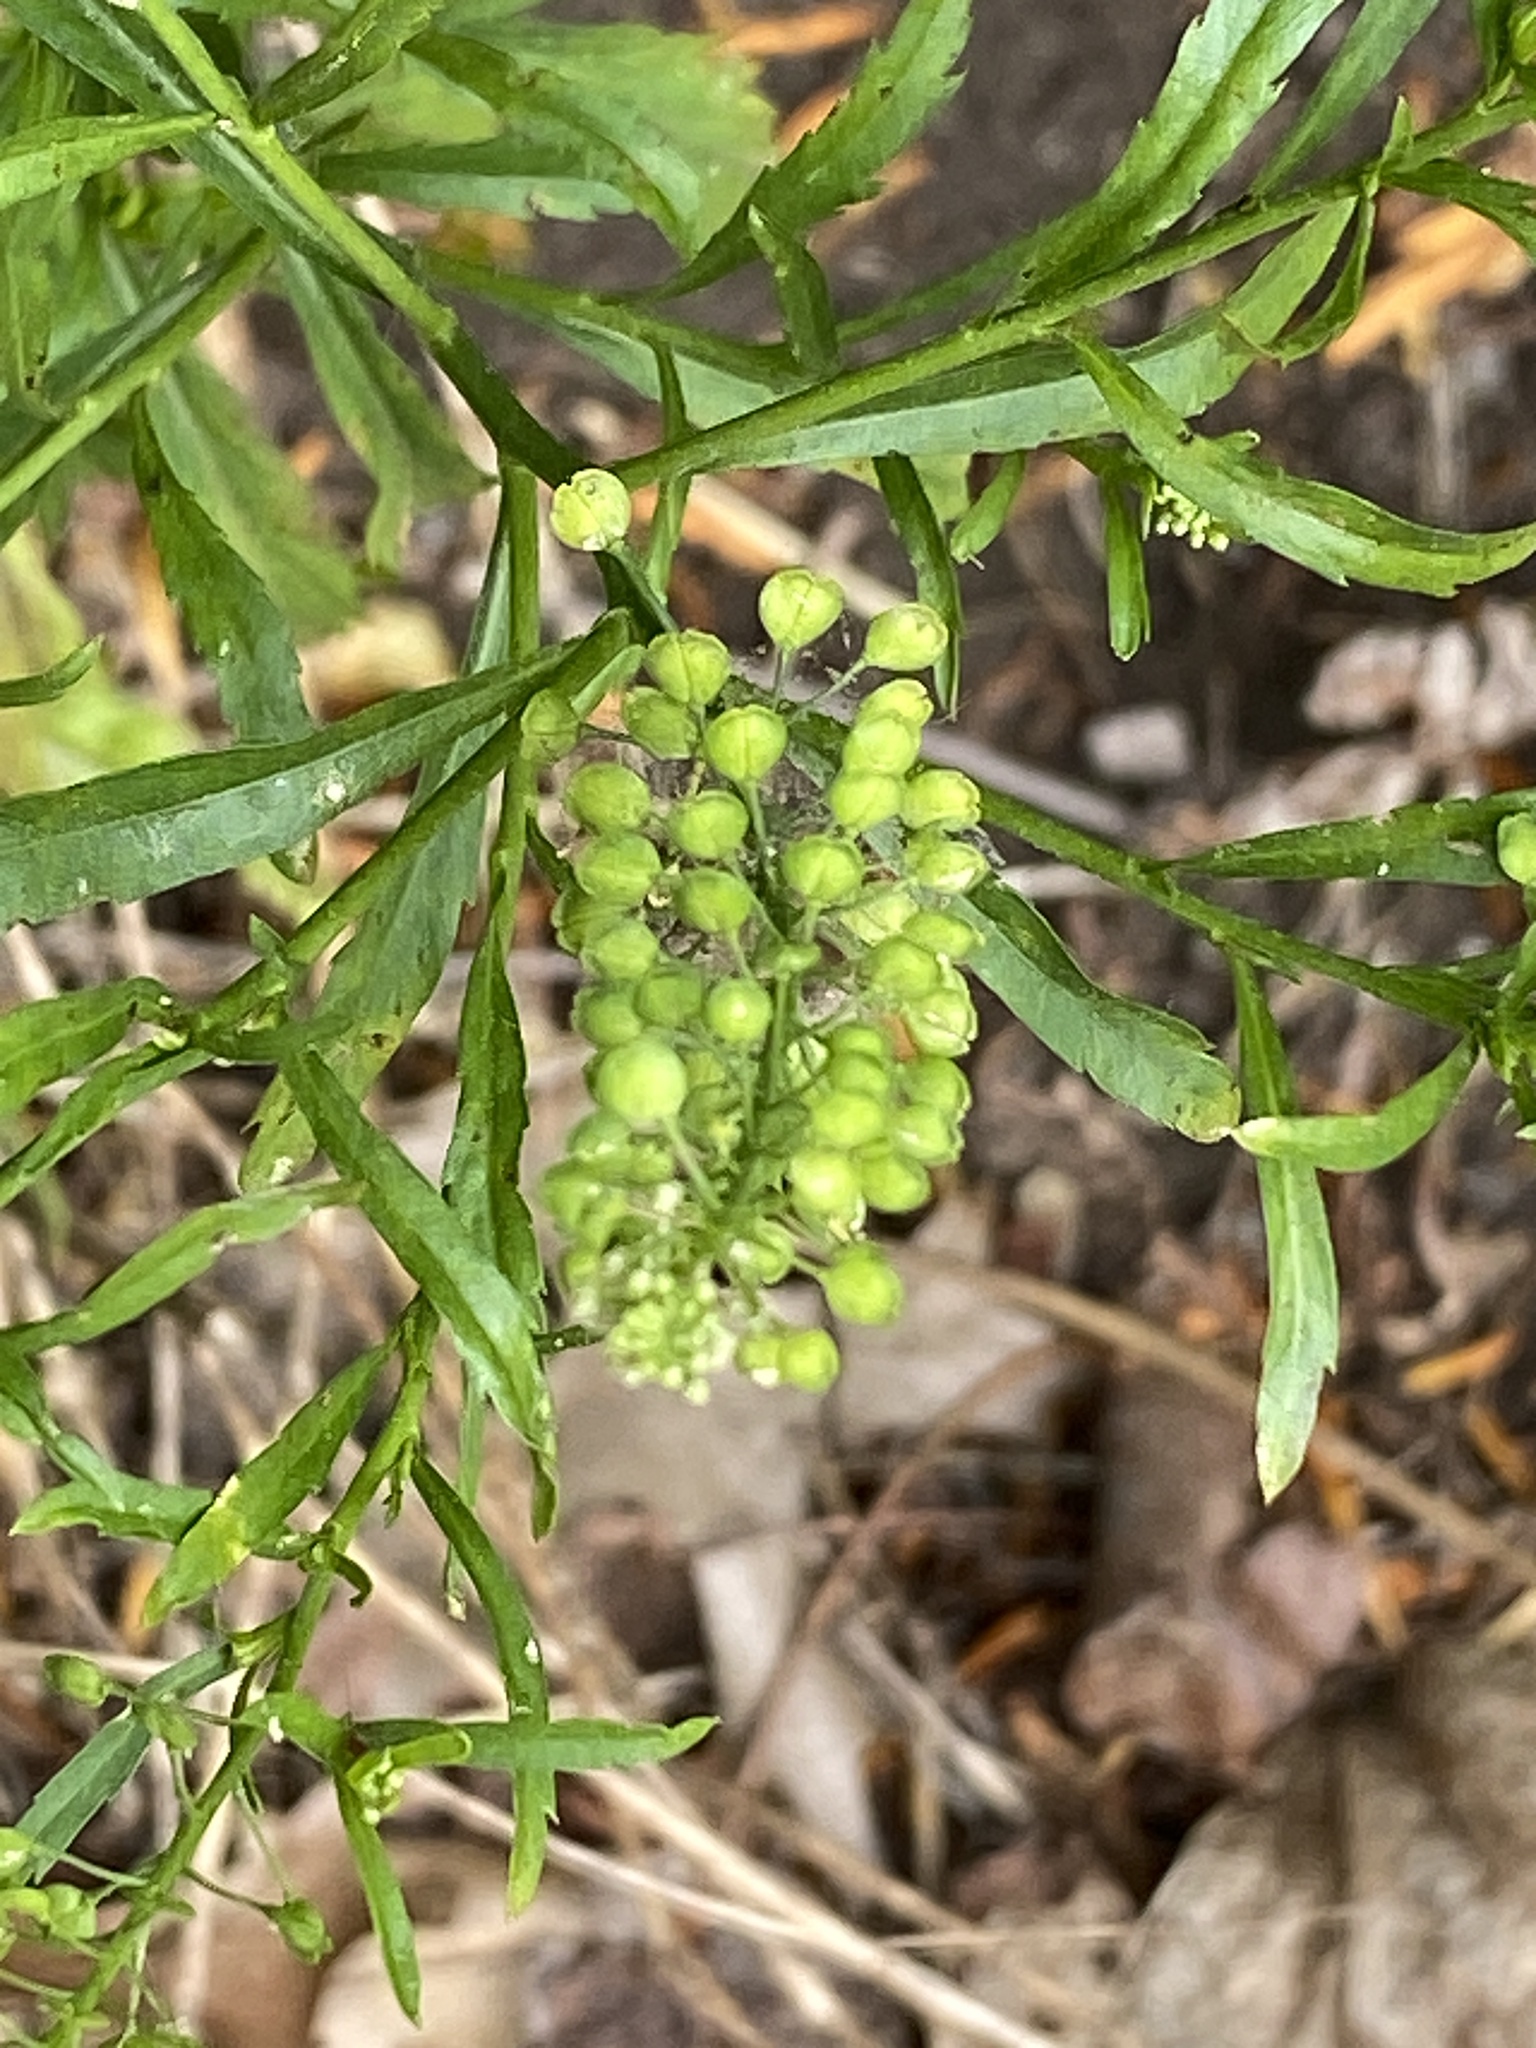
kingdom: Plantae
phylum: Tracheophyta
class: Magnoliopsida
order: Brassicales
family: Brassicaceae
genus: Lepidium
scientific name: Lepidium virginicum
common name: Least pepperwort
